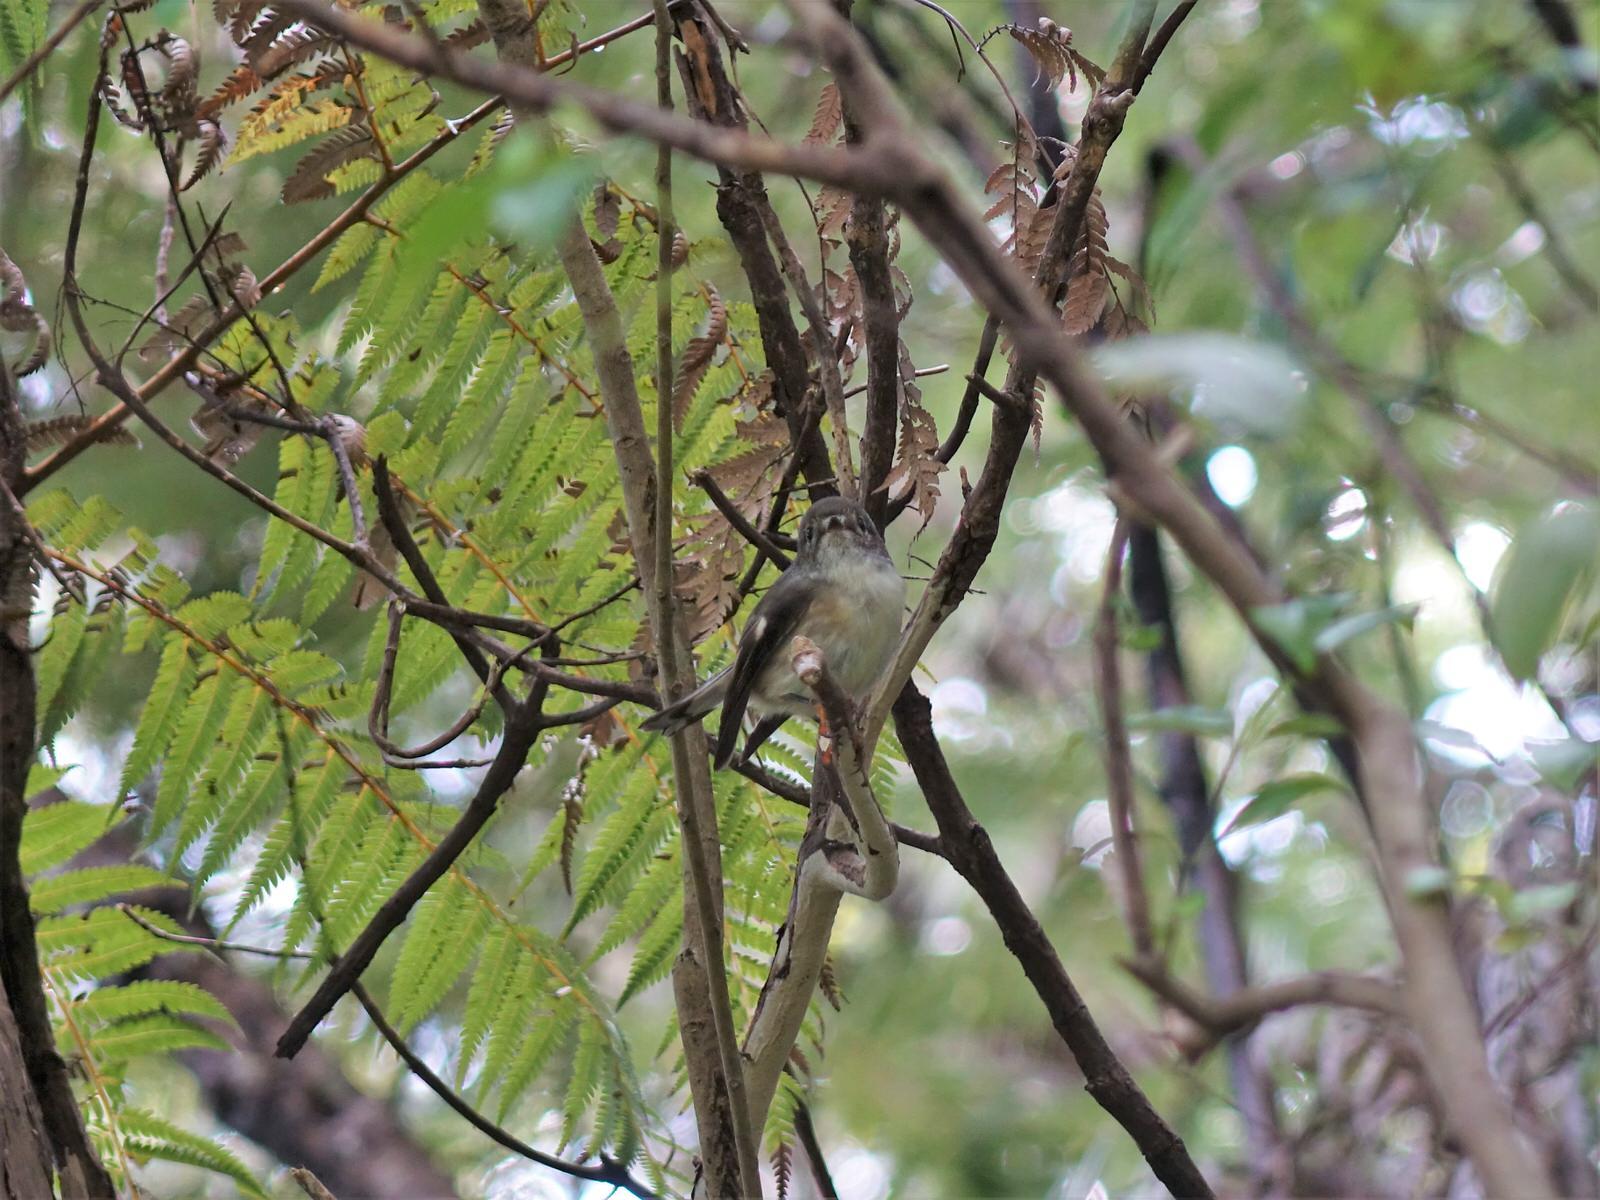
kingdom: Animalia
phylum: Chordata
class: Aves
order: Passeriformes
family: Petroicidae
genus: Petroica
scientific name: Petroica macrocephala
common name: Tomtit
